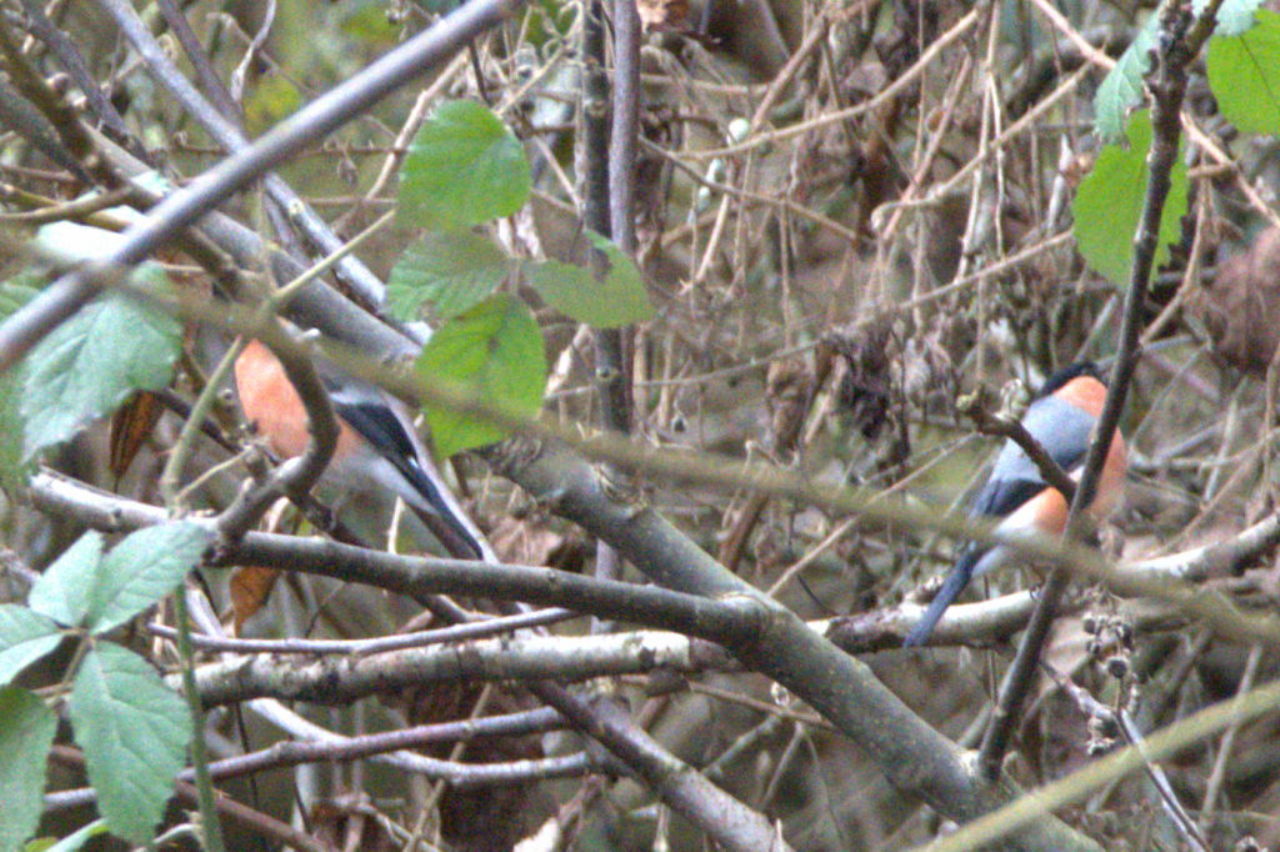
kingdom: Animalia
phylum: Chordata
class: Aves
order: Passeriformes
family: Fringillidae
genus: Pyrrhula
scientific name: Pyrrhula pyrrhula
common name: Eurasian bullfinch
